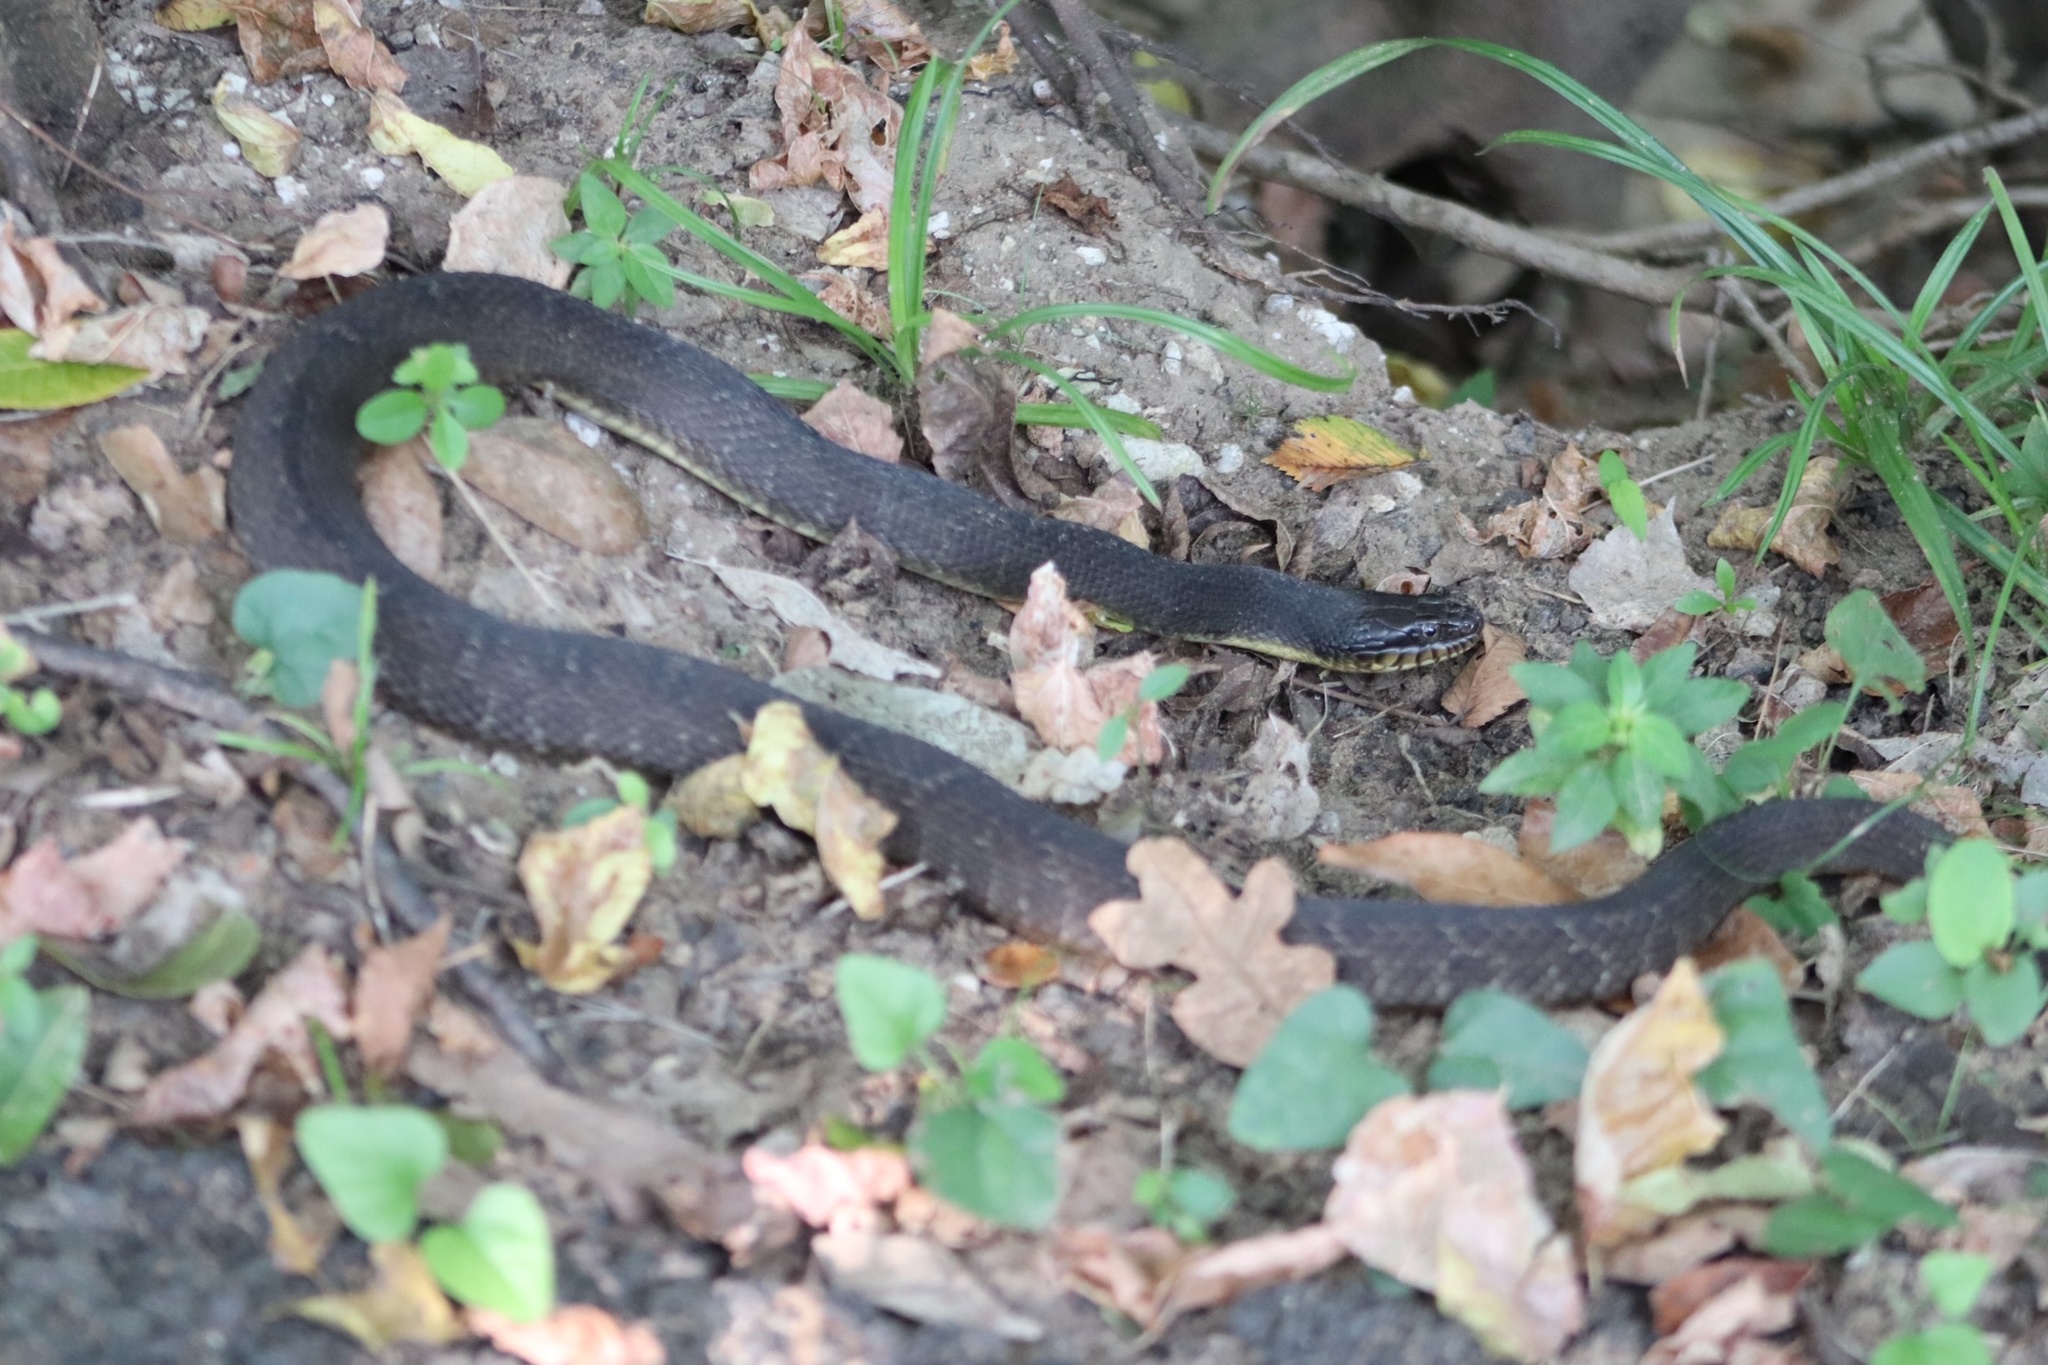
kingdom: Animalia
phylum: Chordata
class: Squamata
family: Colubridae
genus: Nerodia
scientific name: Nerodia erythrogaster
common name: Plainbelly water snake
